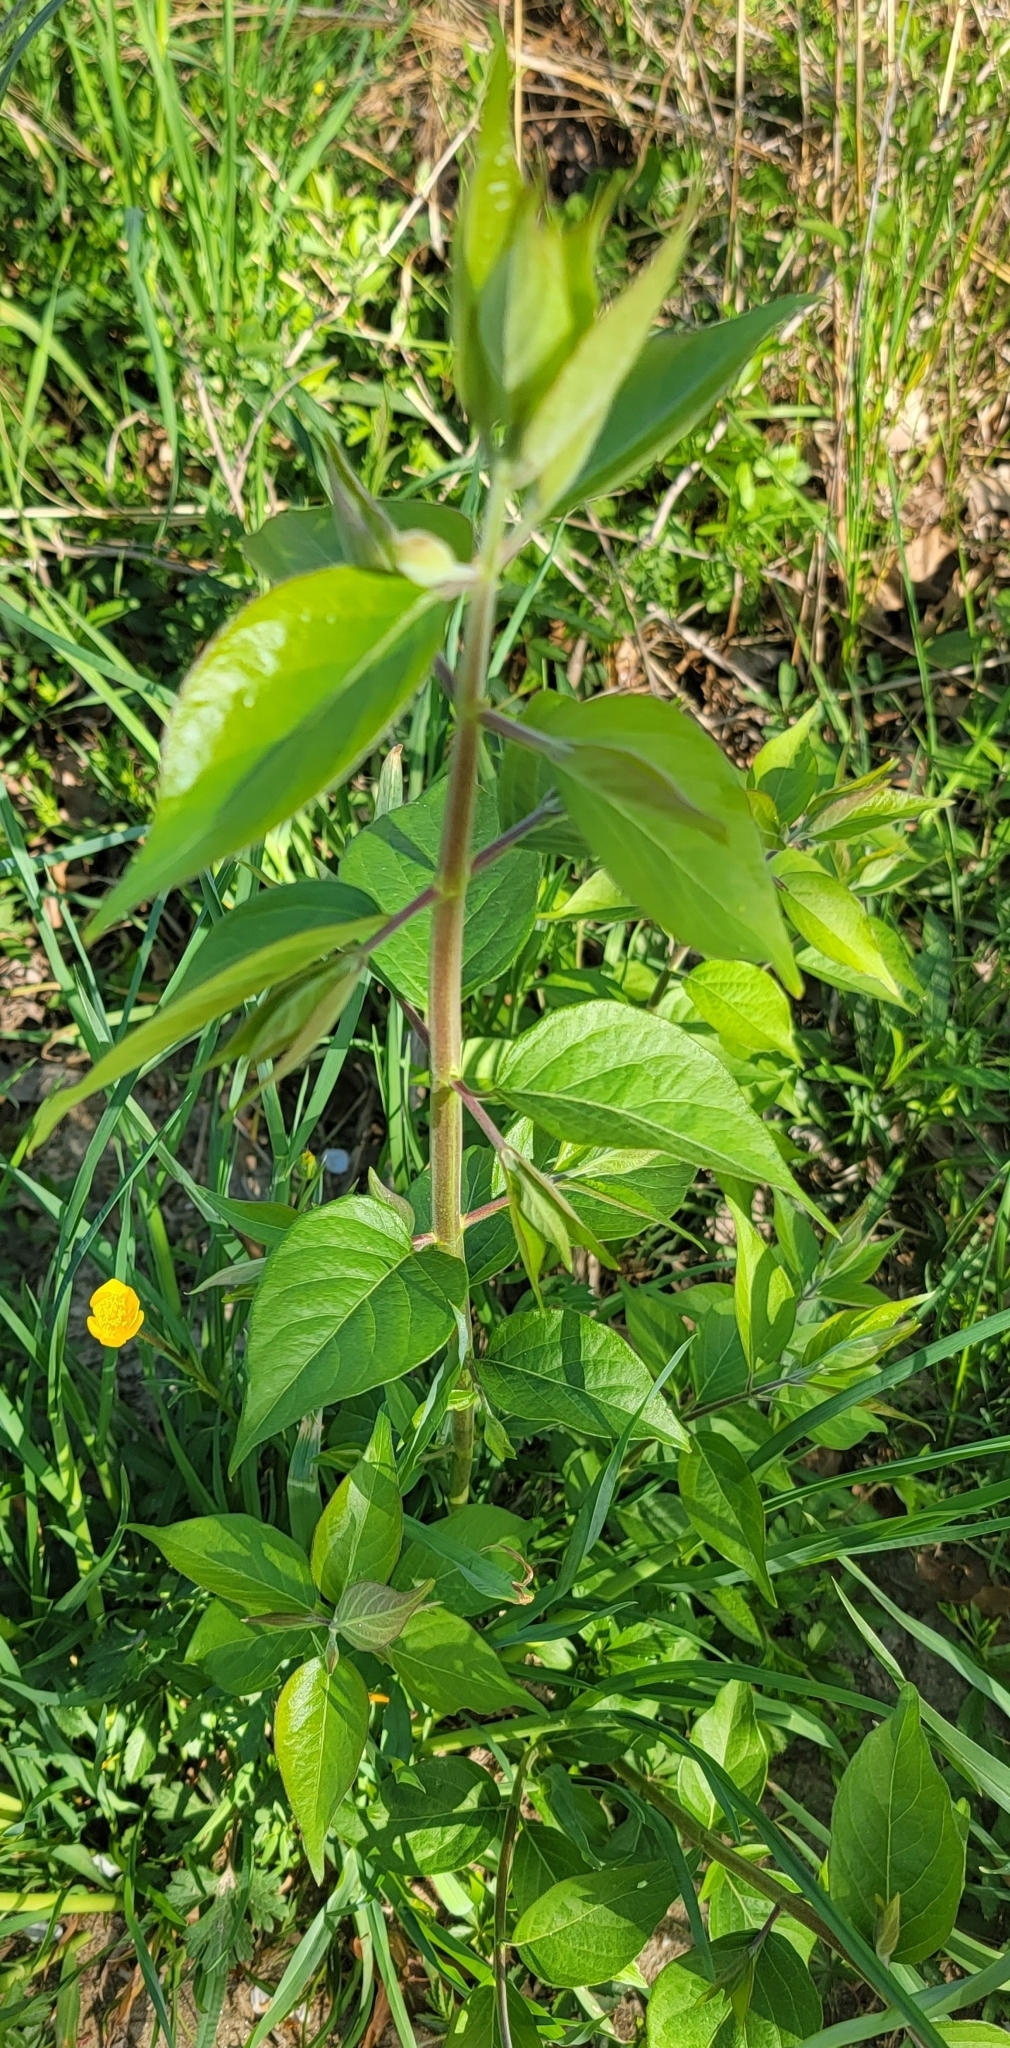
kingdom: Plantae
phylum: Tracheophyta
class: Magnoliopsida
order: Dipsacales
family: Caprifoliaceae
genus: Lonicera
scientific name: Lonicera maackii
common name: Amur honeysuckle
